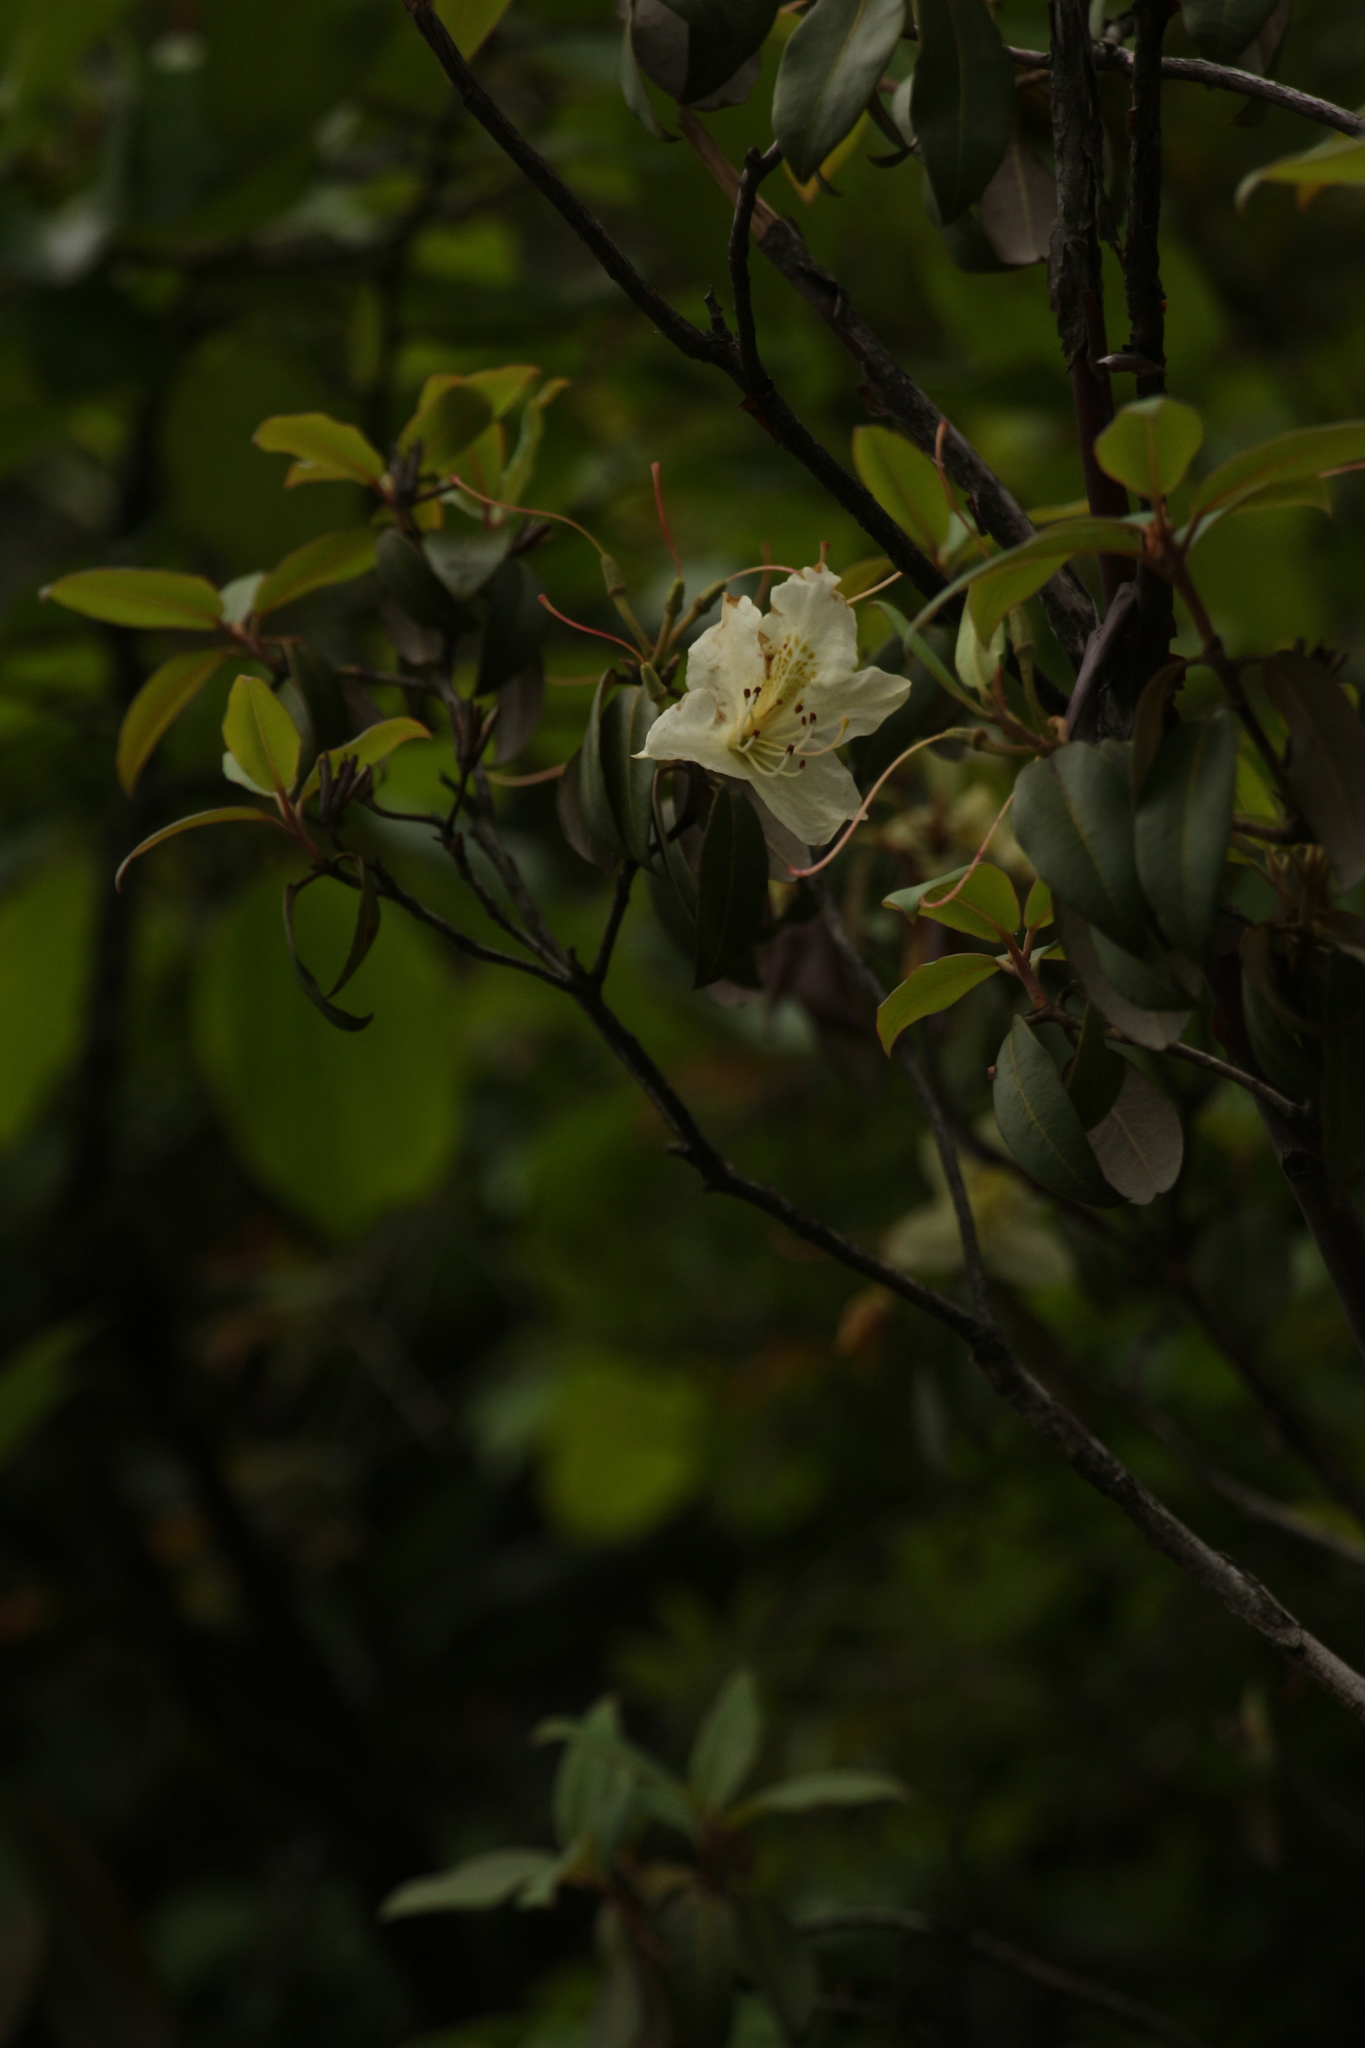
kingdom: Plantae
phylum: Tracheophyta
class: Magnoliopsida
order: Ericales
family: Ericaceae
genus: Rhododendron
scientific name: Rhododendron triflorum
